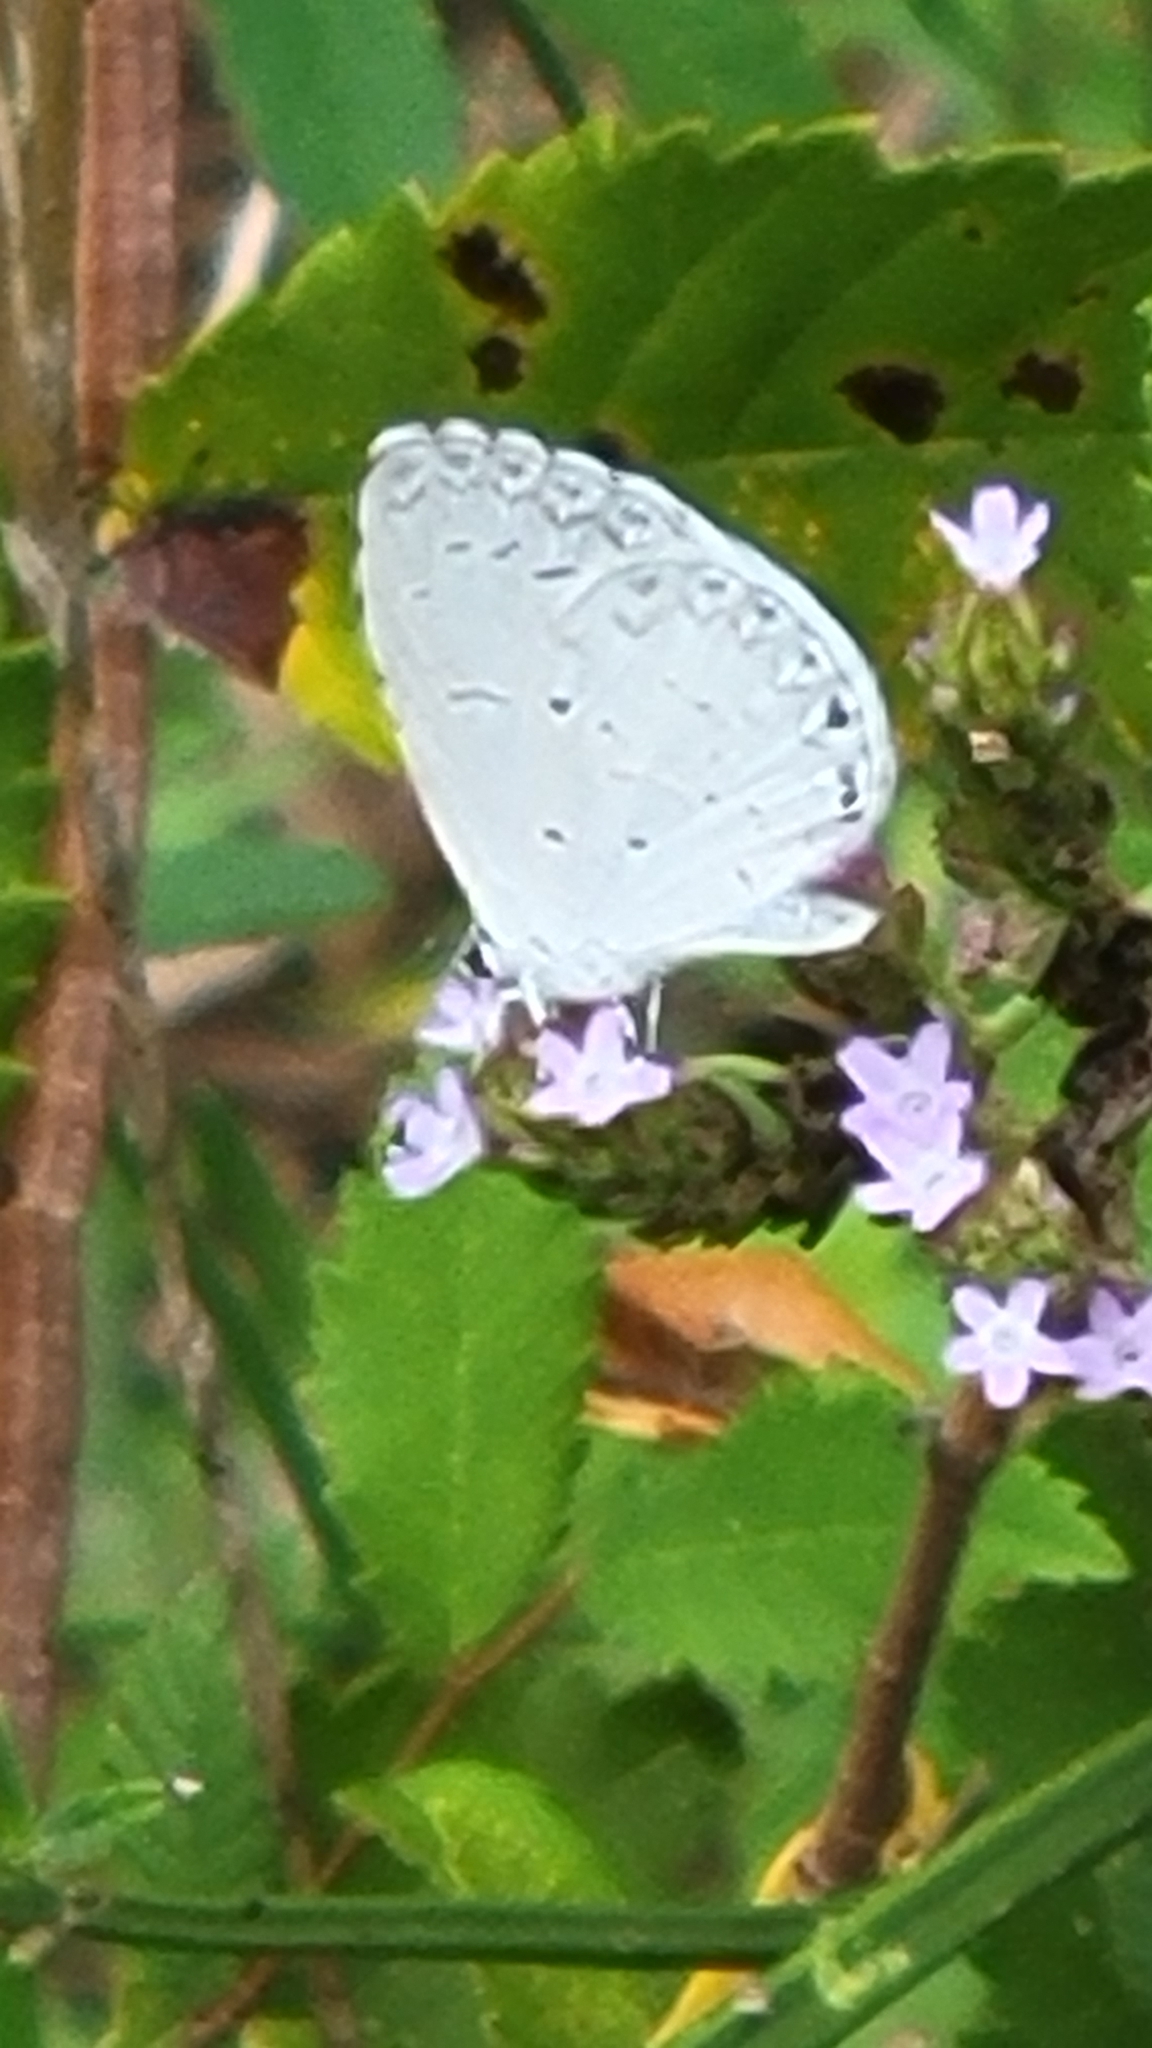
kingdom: Animalia
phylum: Arthropoda
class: Insecta
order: Lepidoptera
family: Lycaenidae
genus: Cyaniris
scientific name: Cyaniris neglecta
